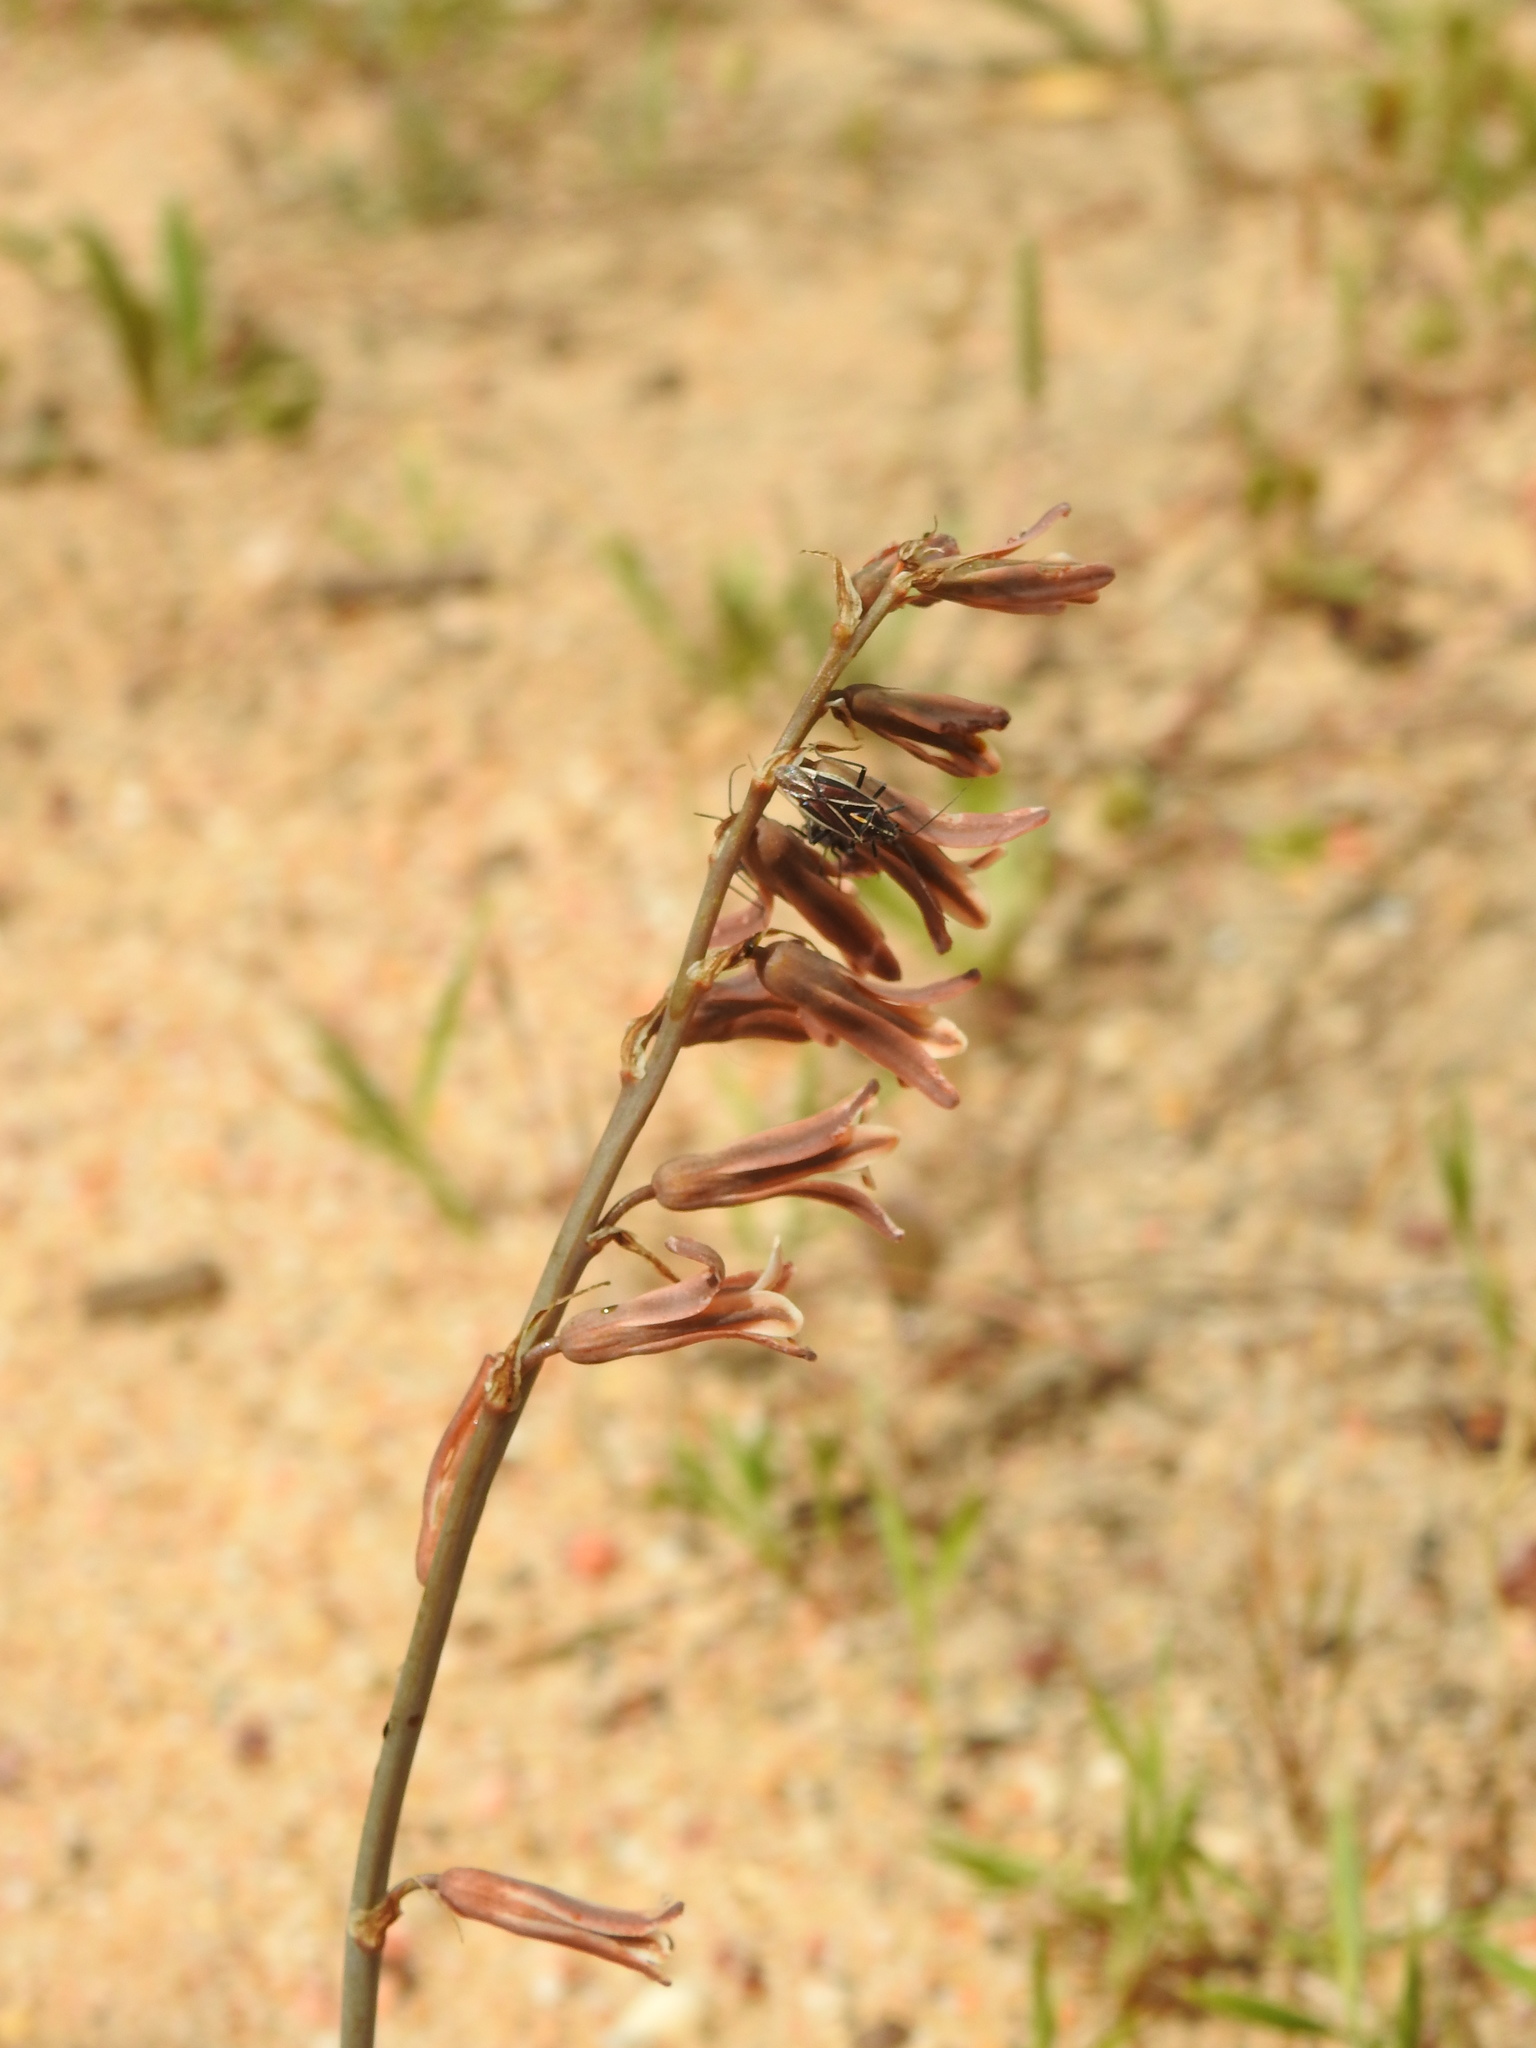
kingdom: Plantae
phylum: Tracheophyta
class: Liliopsida
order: Asparagales
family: Asparagaceae
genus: Dipcadi
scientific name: Dipcadi serotinum
